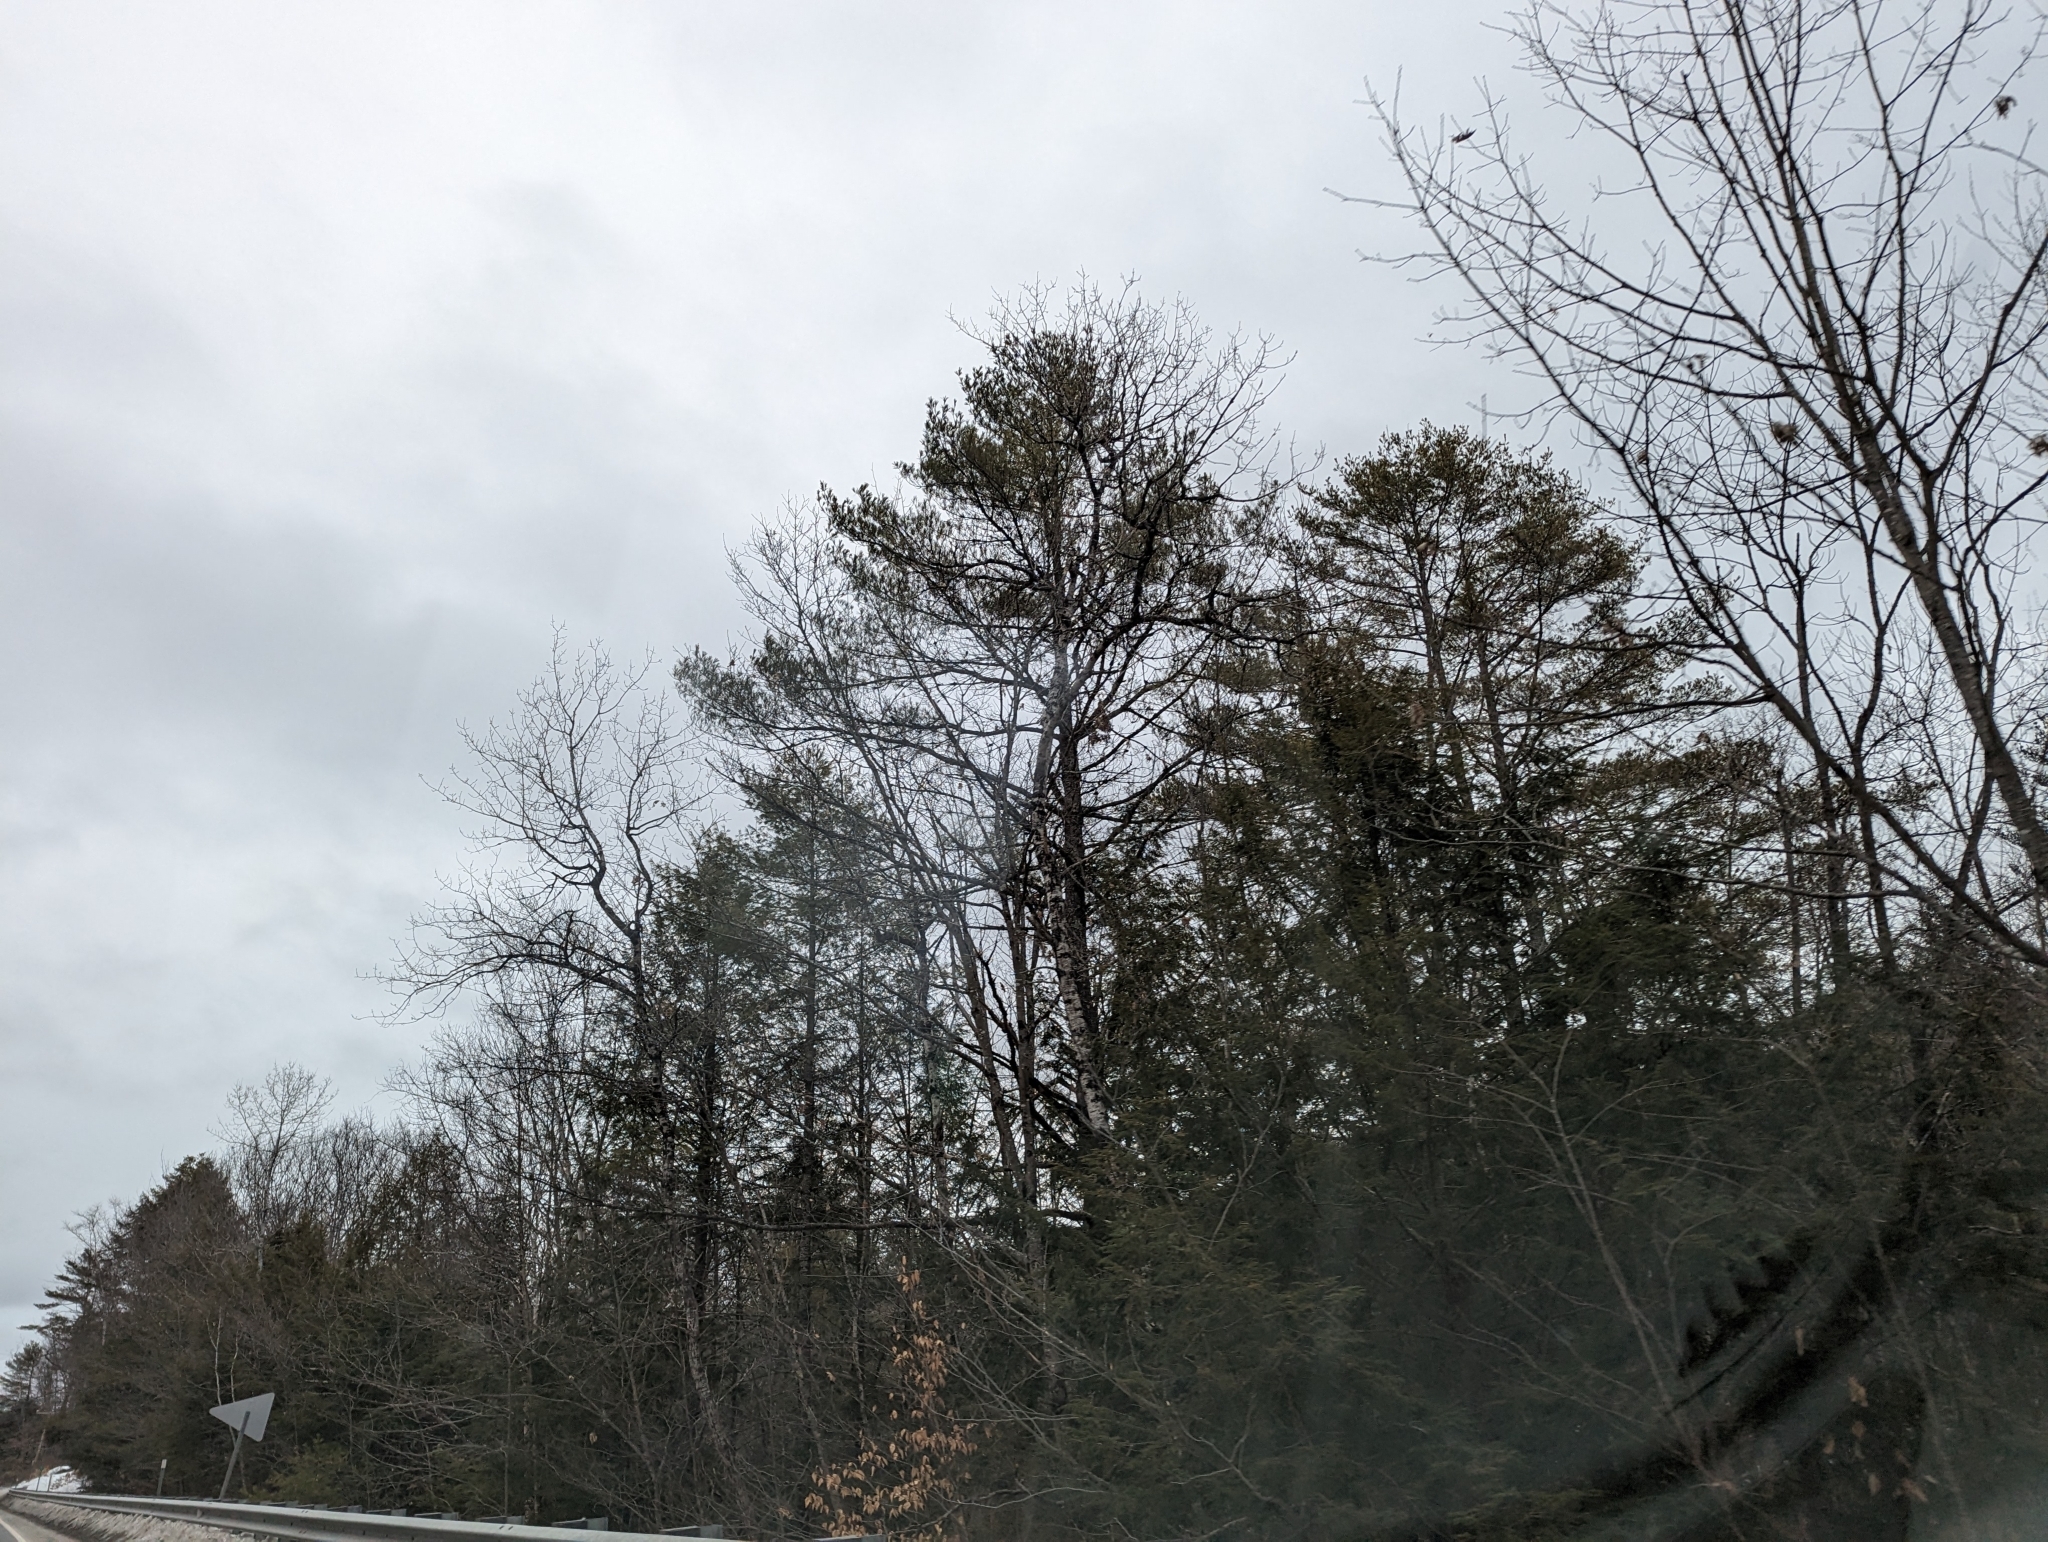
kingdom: Plantae
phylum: Tracheophyta
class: Pinopsida
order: Pinales
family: Pinaceae
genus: Pinus
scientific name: Pinus strobus
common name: Weymouth pine
